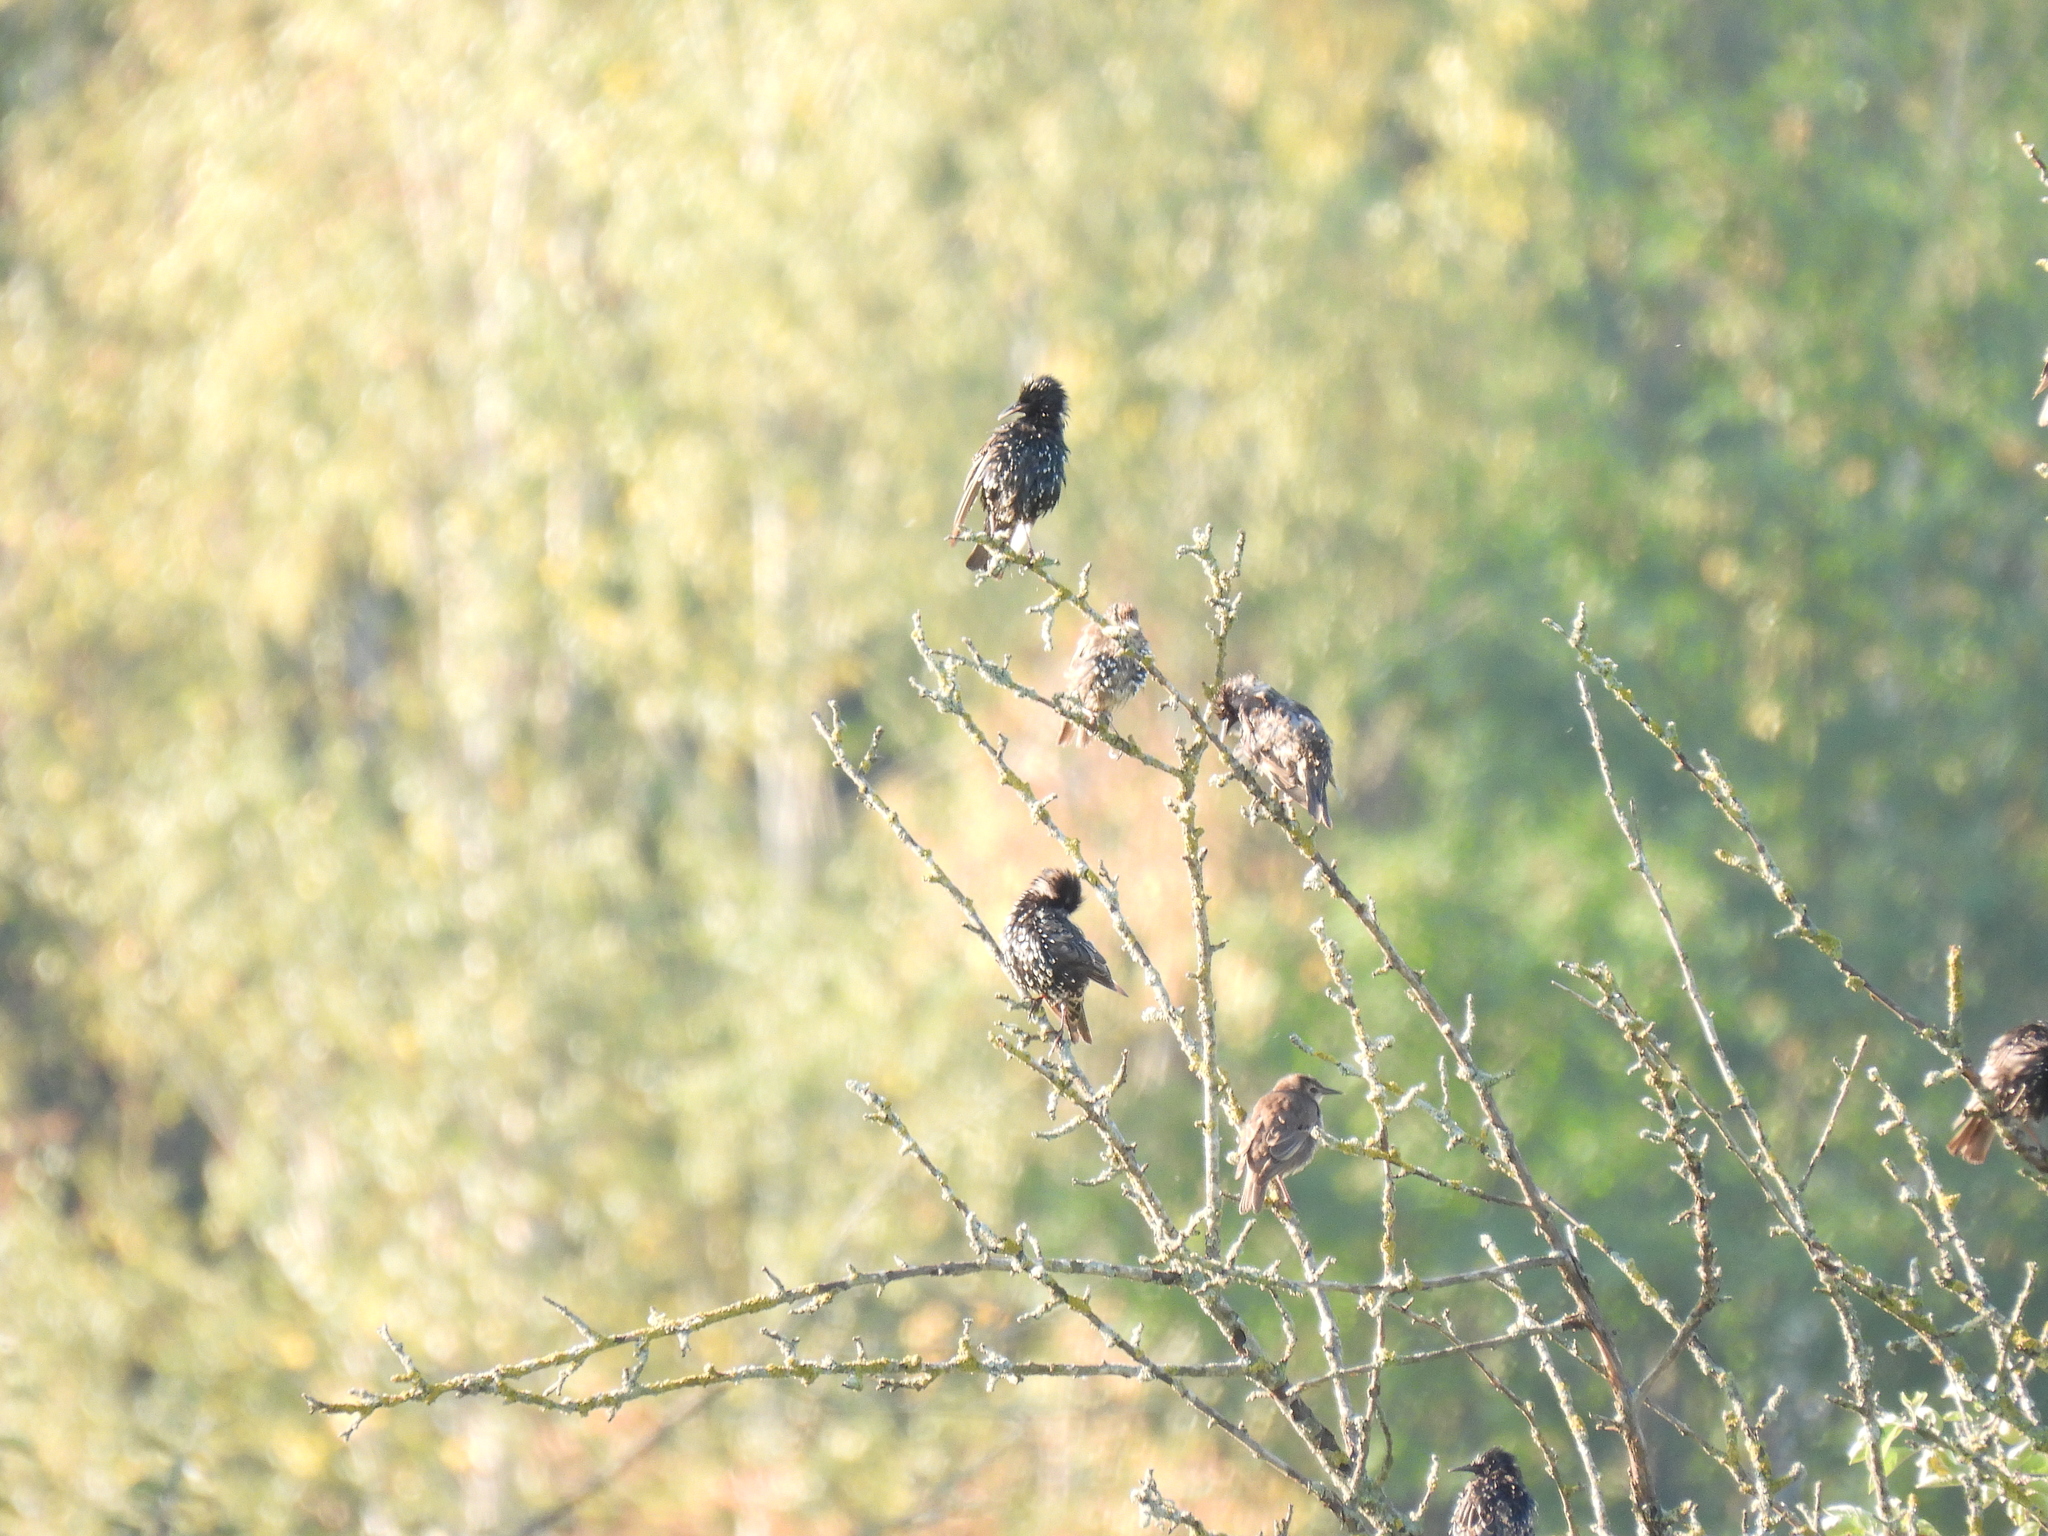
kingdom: Animalia
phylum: Chordata
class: Aves
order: Passeriformes
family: Sturnidae
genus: Sturnus
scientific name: Sturnus vulgaris
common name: Common starling
